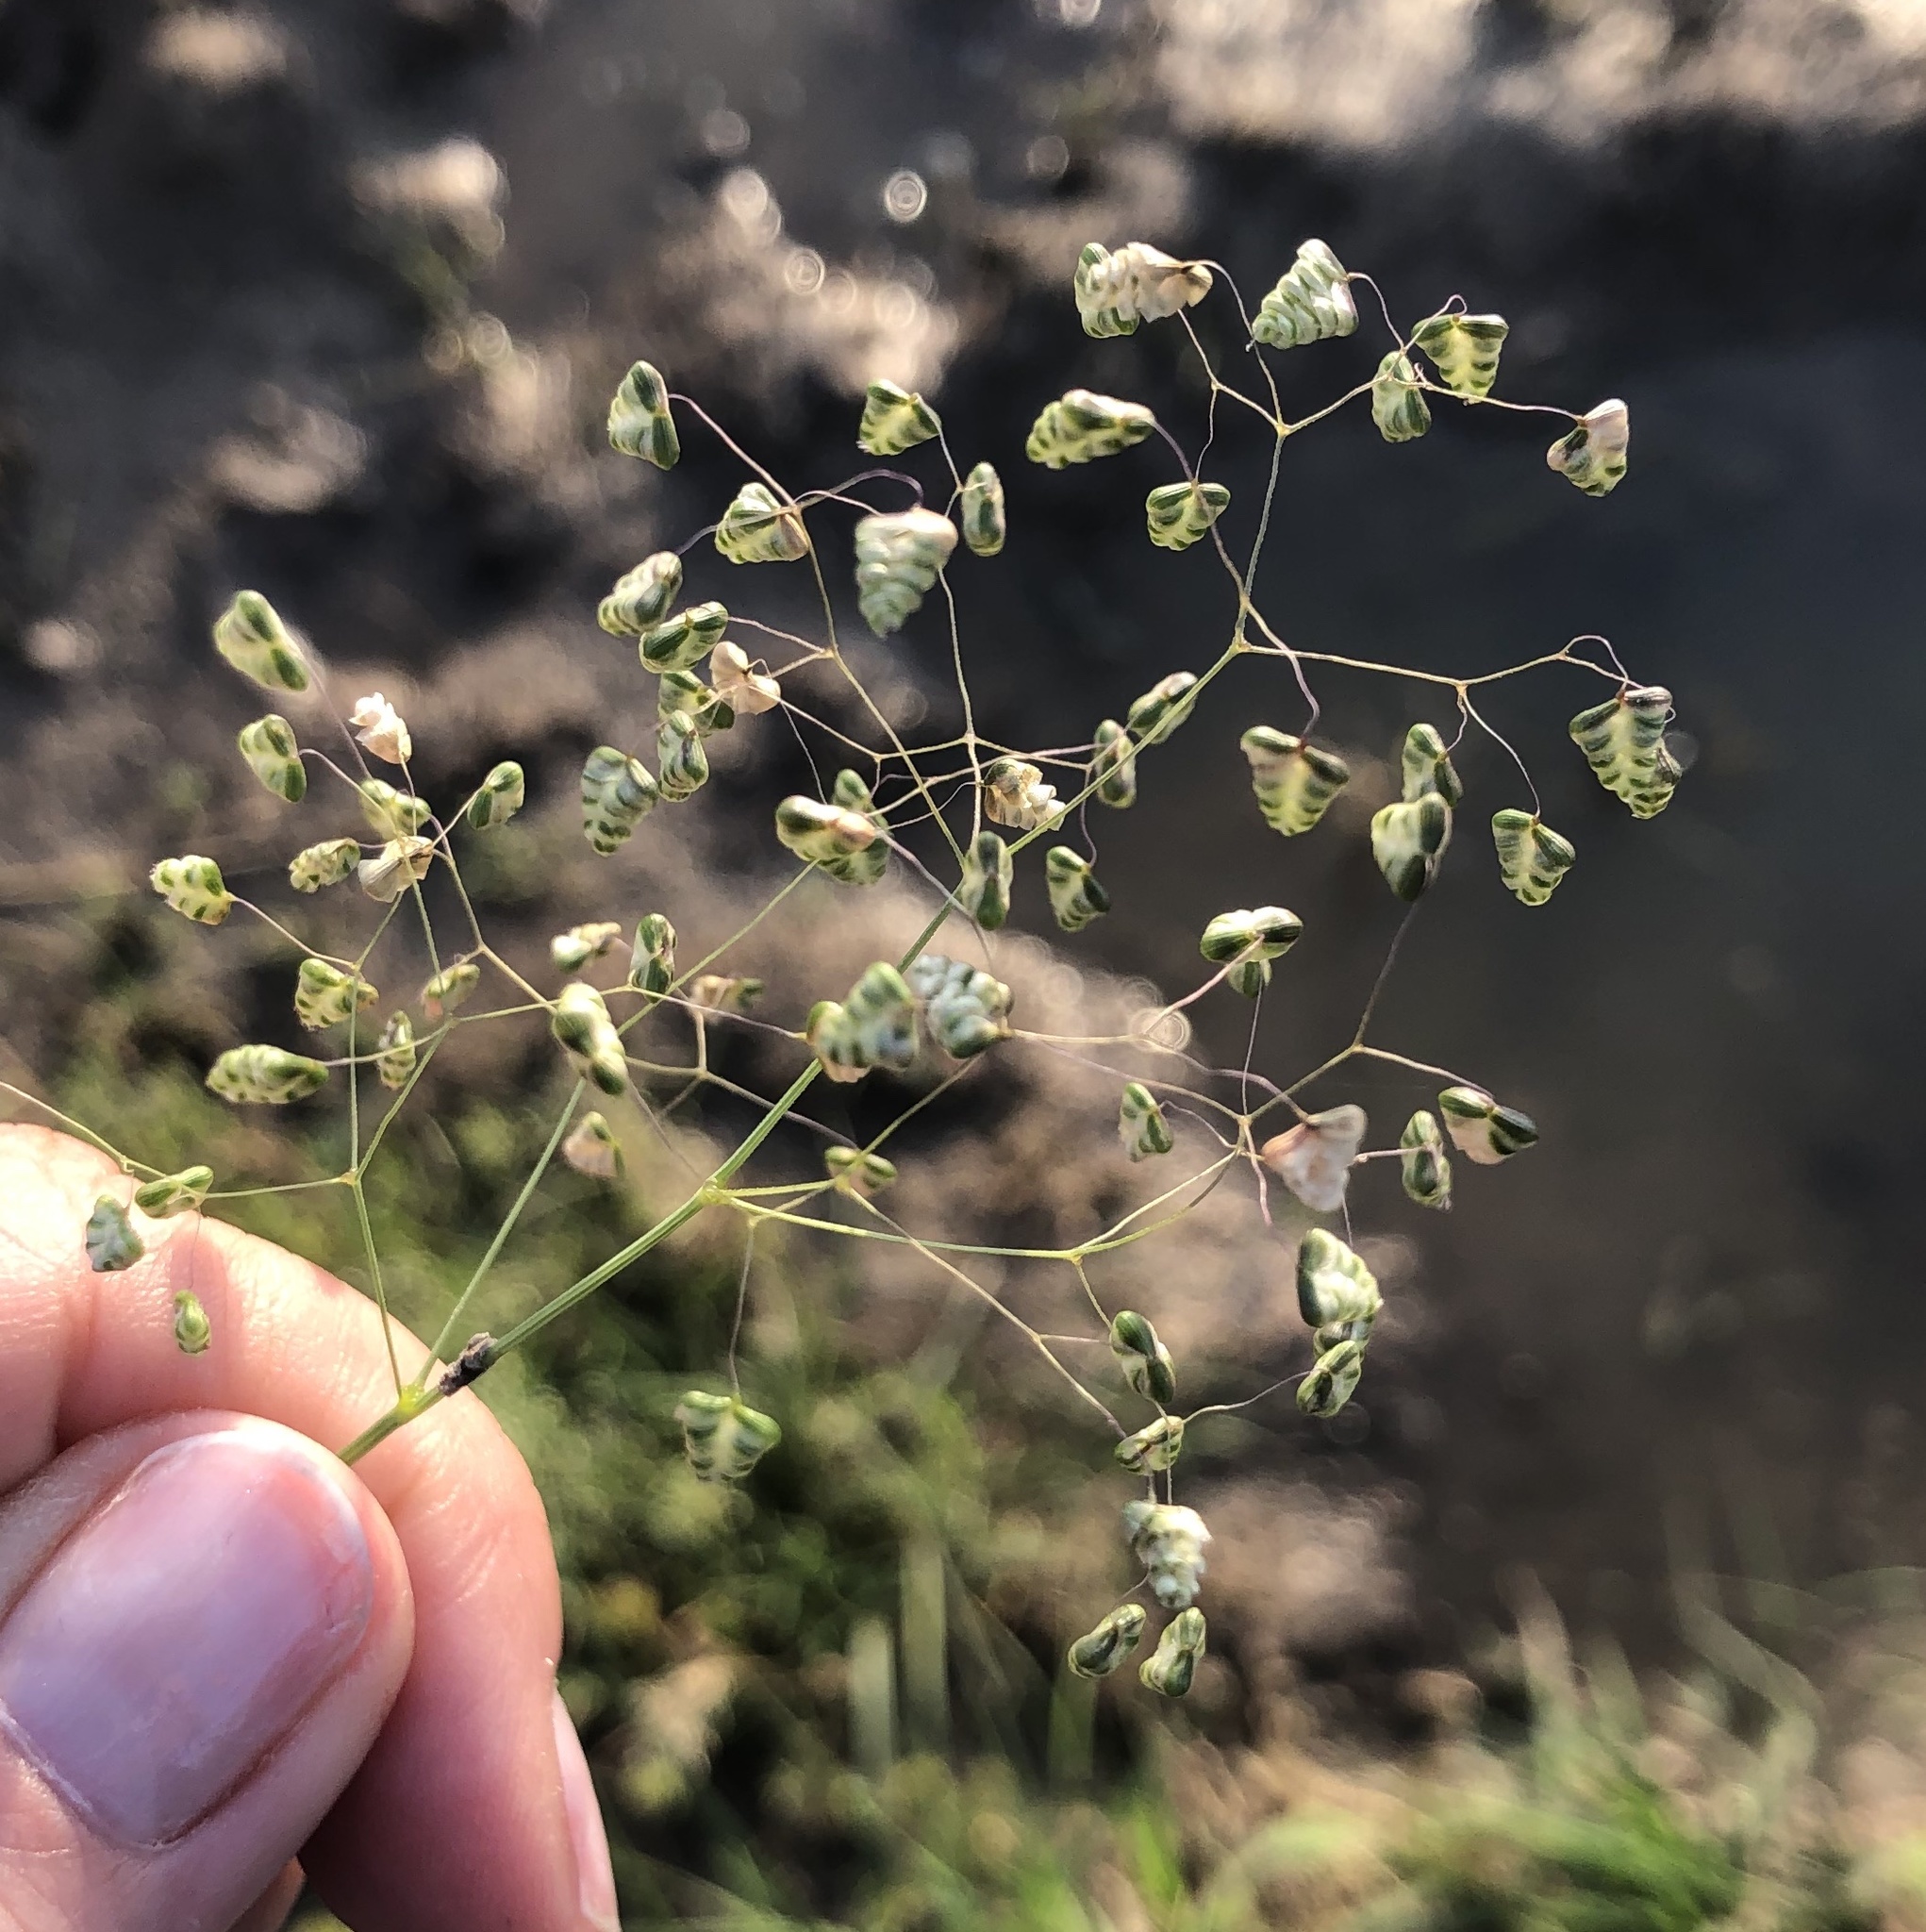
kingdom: Plantae
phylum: Tracheophyta
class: Liliopsida
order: Poales
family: Poaceae
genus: Briza
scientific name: Briza minor
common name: Lesser quaking-grass
